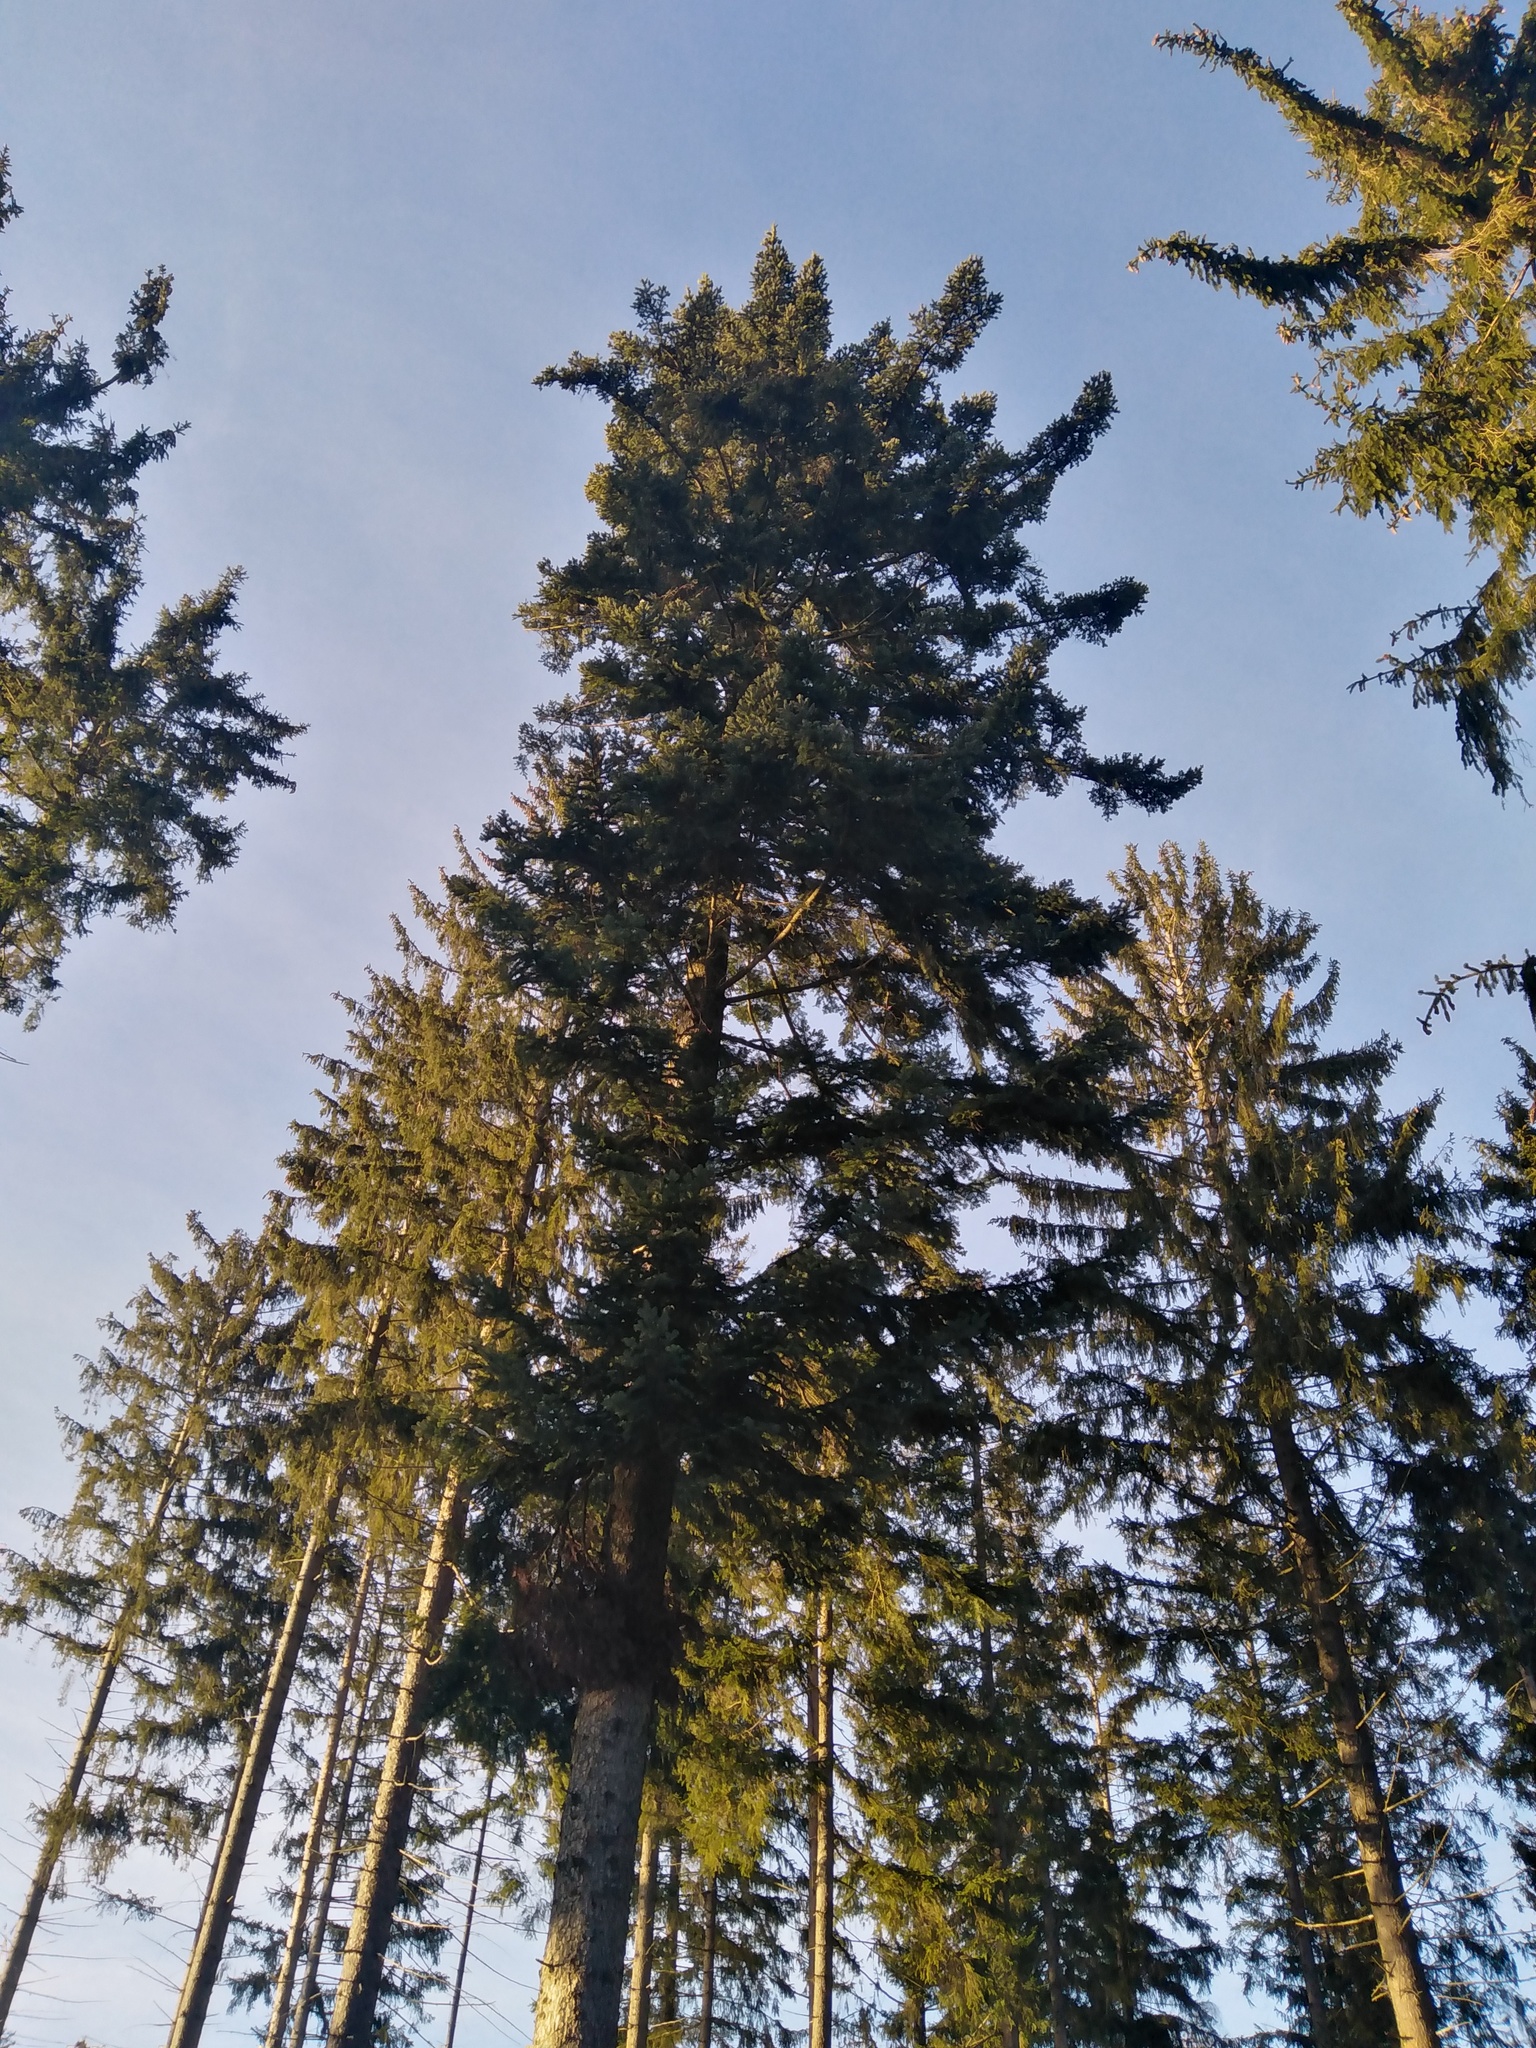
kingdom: Plantae
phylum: Tracheophyta
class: Pinopsida
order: Pinales
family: Pinaceae
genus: Abies
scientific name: Abies alba
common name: Silver fir
